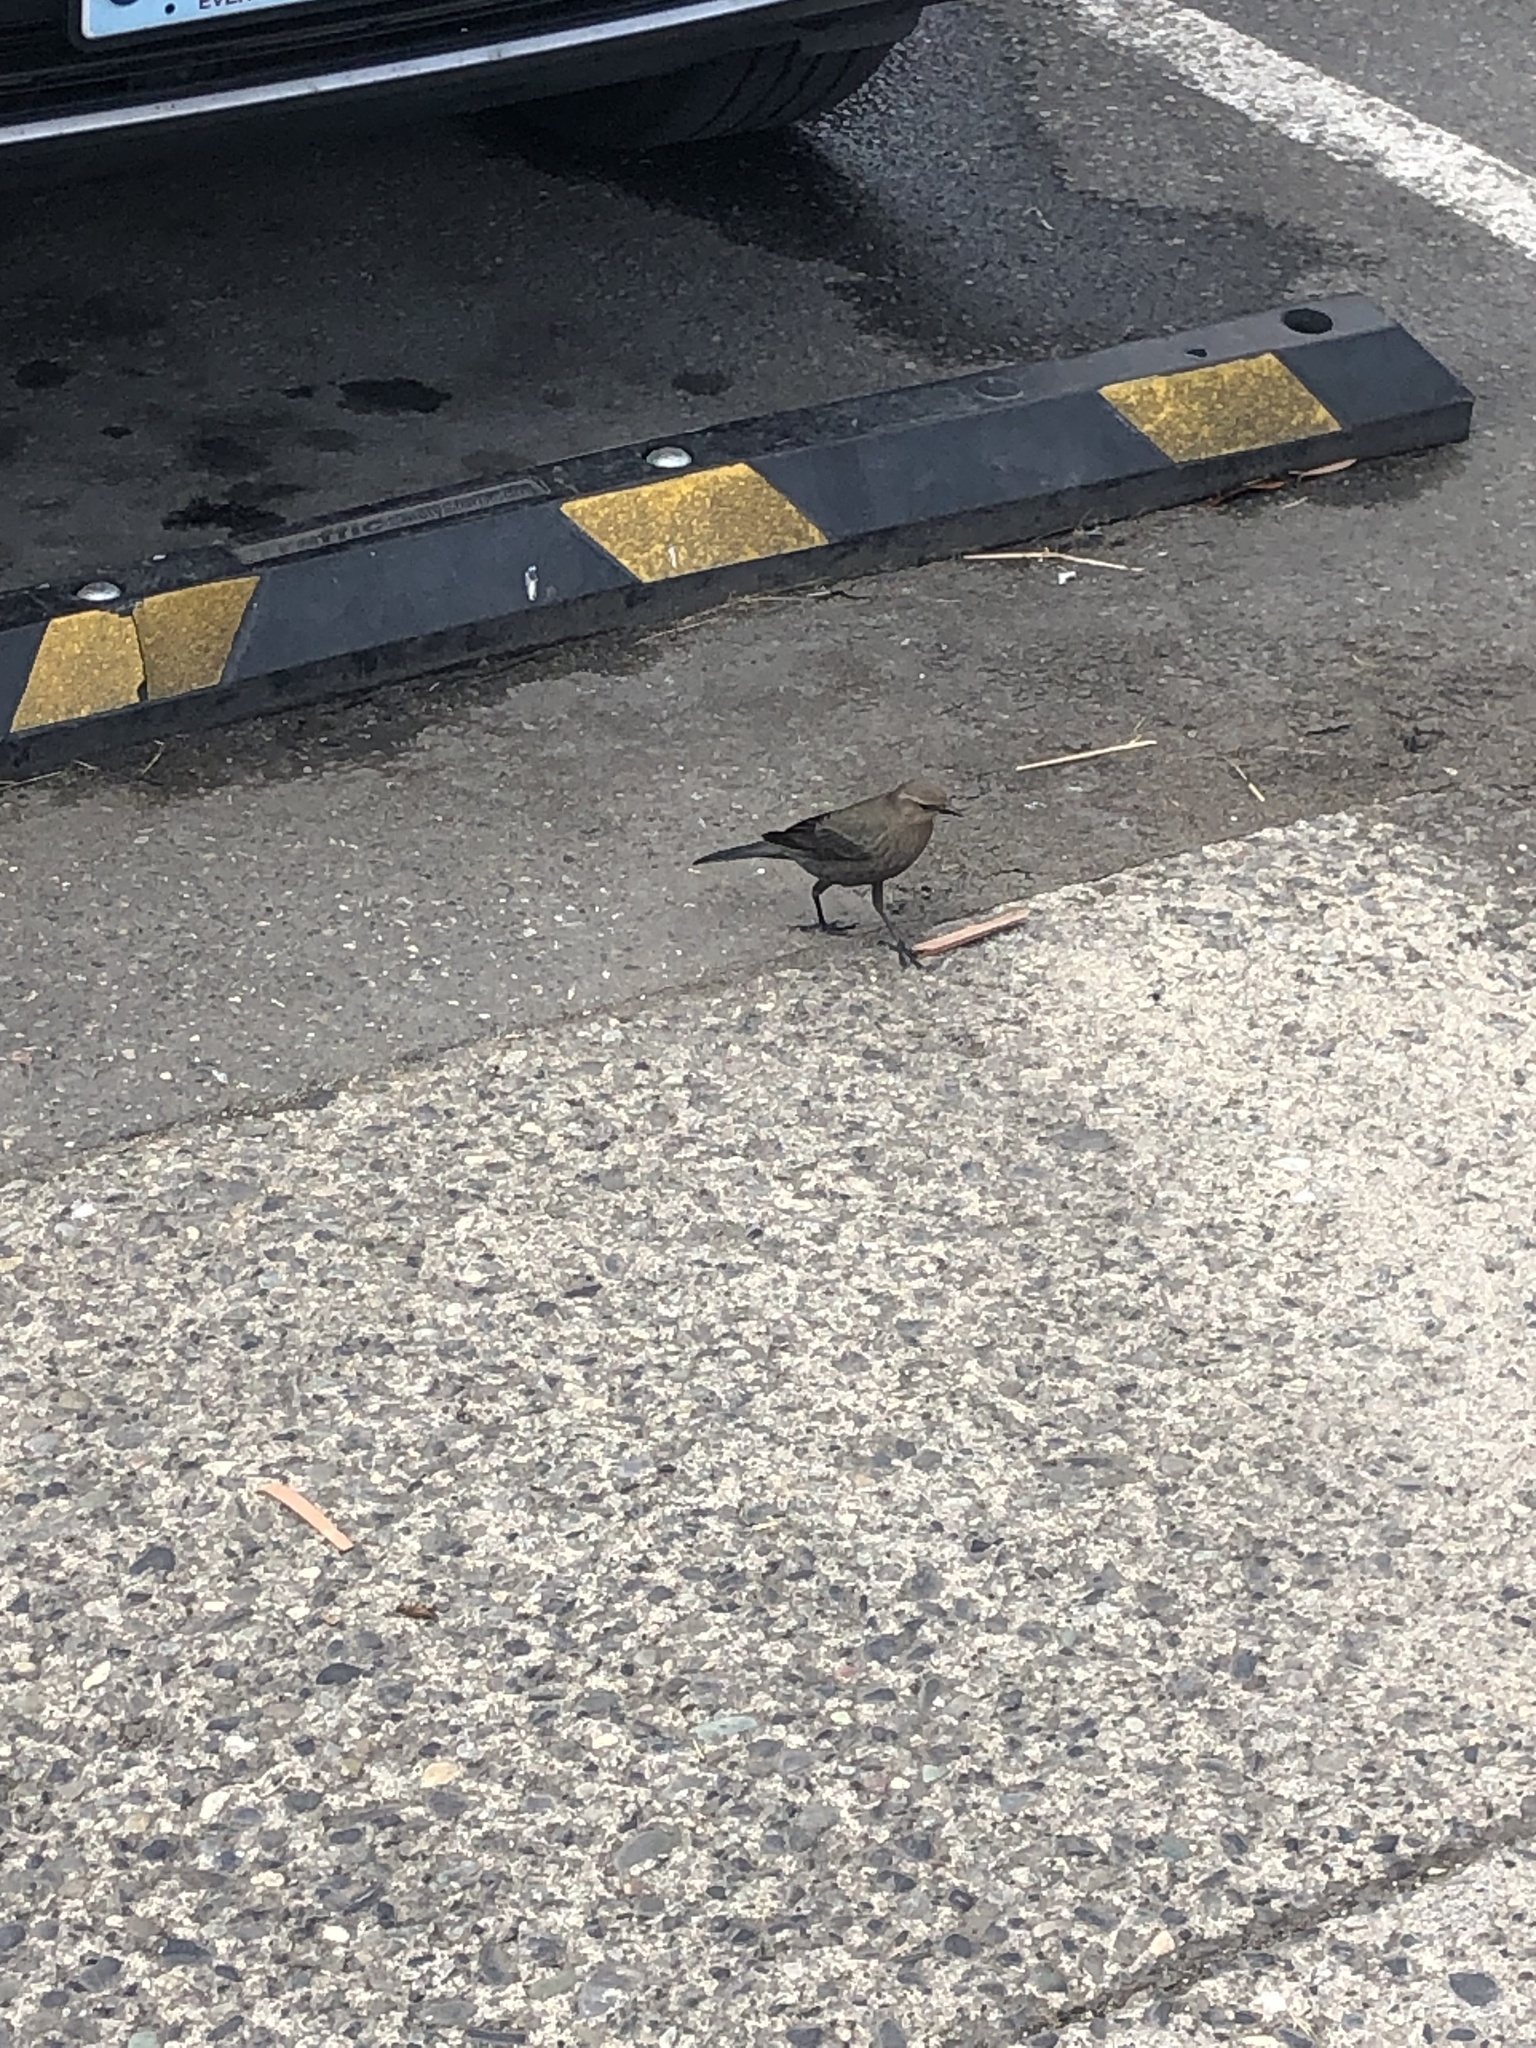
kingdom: Animalia
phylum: Chordata
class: Aves
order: Passeriformes
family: Icteridae
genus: Euphagus
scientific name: Euphagus cyanocephalus
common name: Brewer's blackbird
